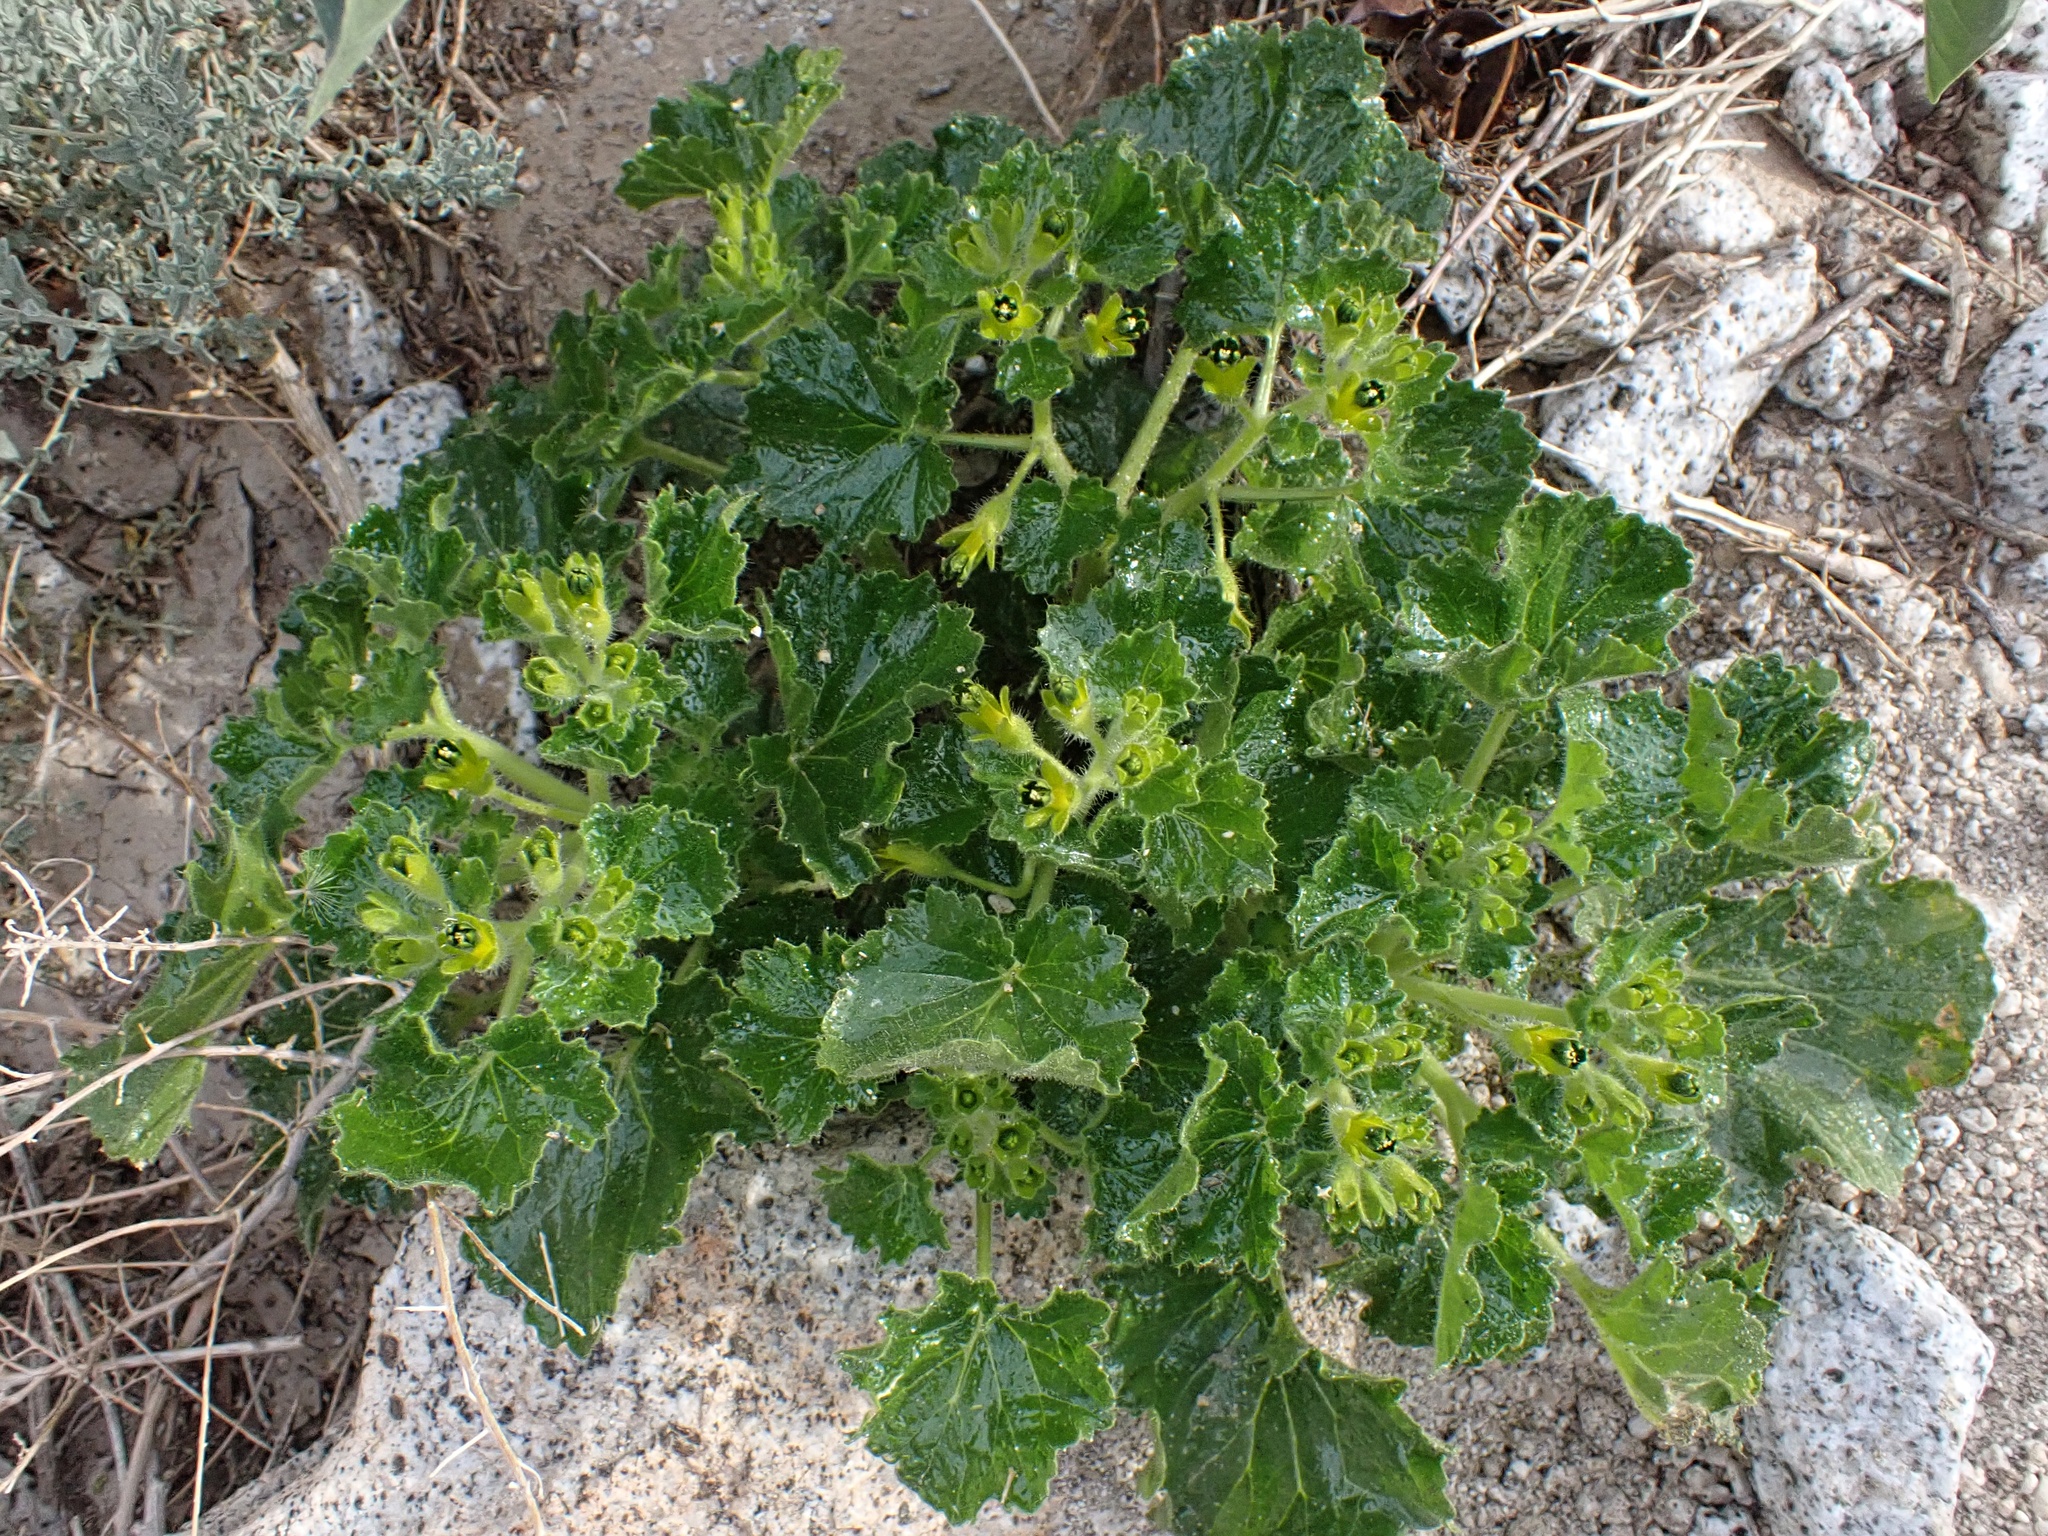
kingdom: Plantae
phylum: Tracheophyta
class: Magnoliopsida
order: Cornales
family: Loasaceae
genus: Eucnide
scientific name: Eucnide rupestris
